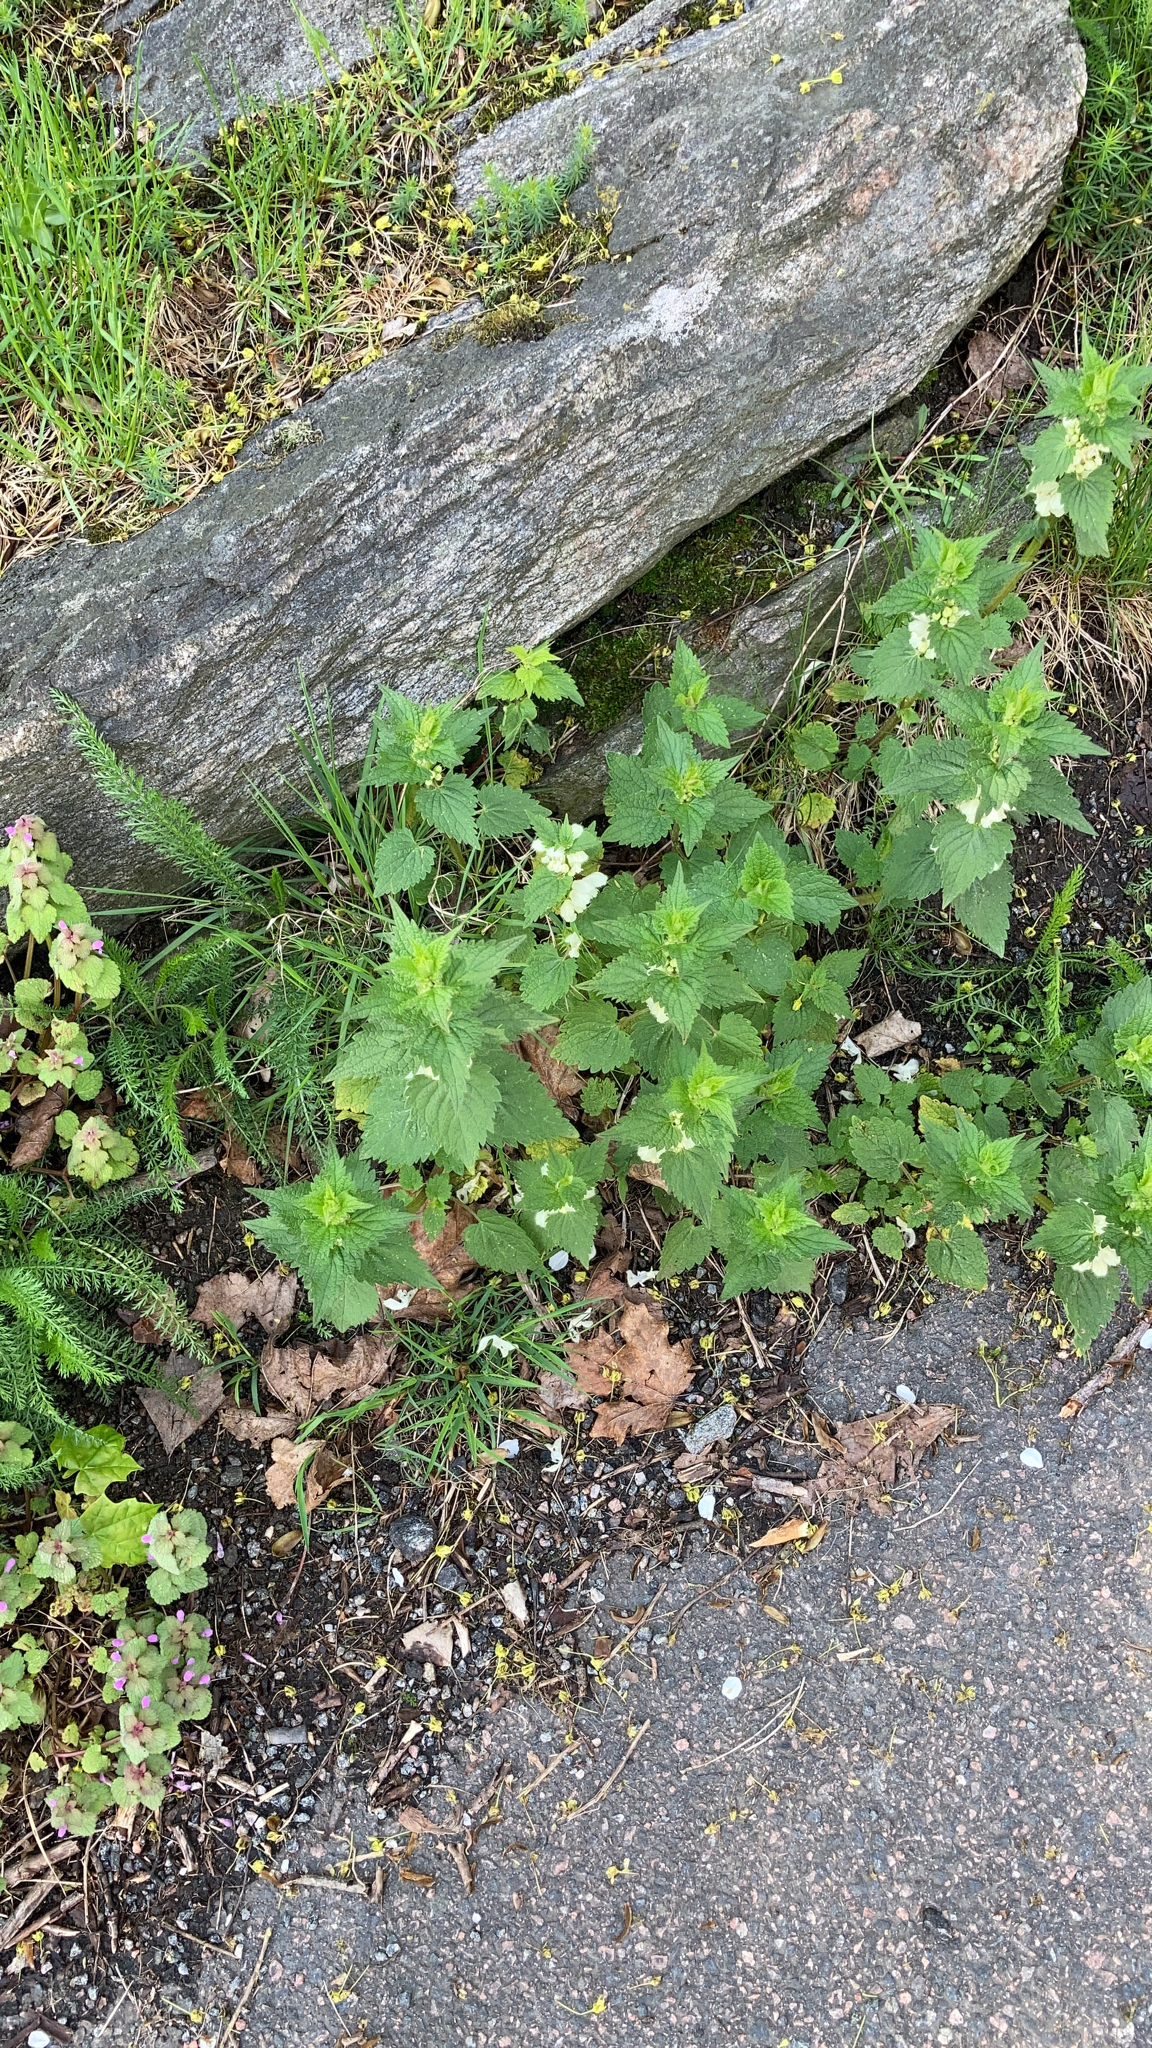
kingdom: Plantae
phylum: Tracheophyta
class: Magnoliopsida
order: Lamiales
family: Lamiaceae
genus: Lamium
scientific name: Lamium album
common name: White dead-nettle
